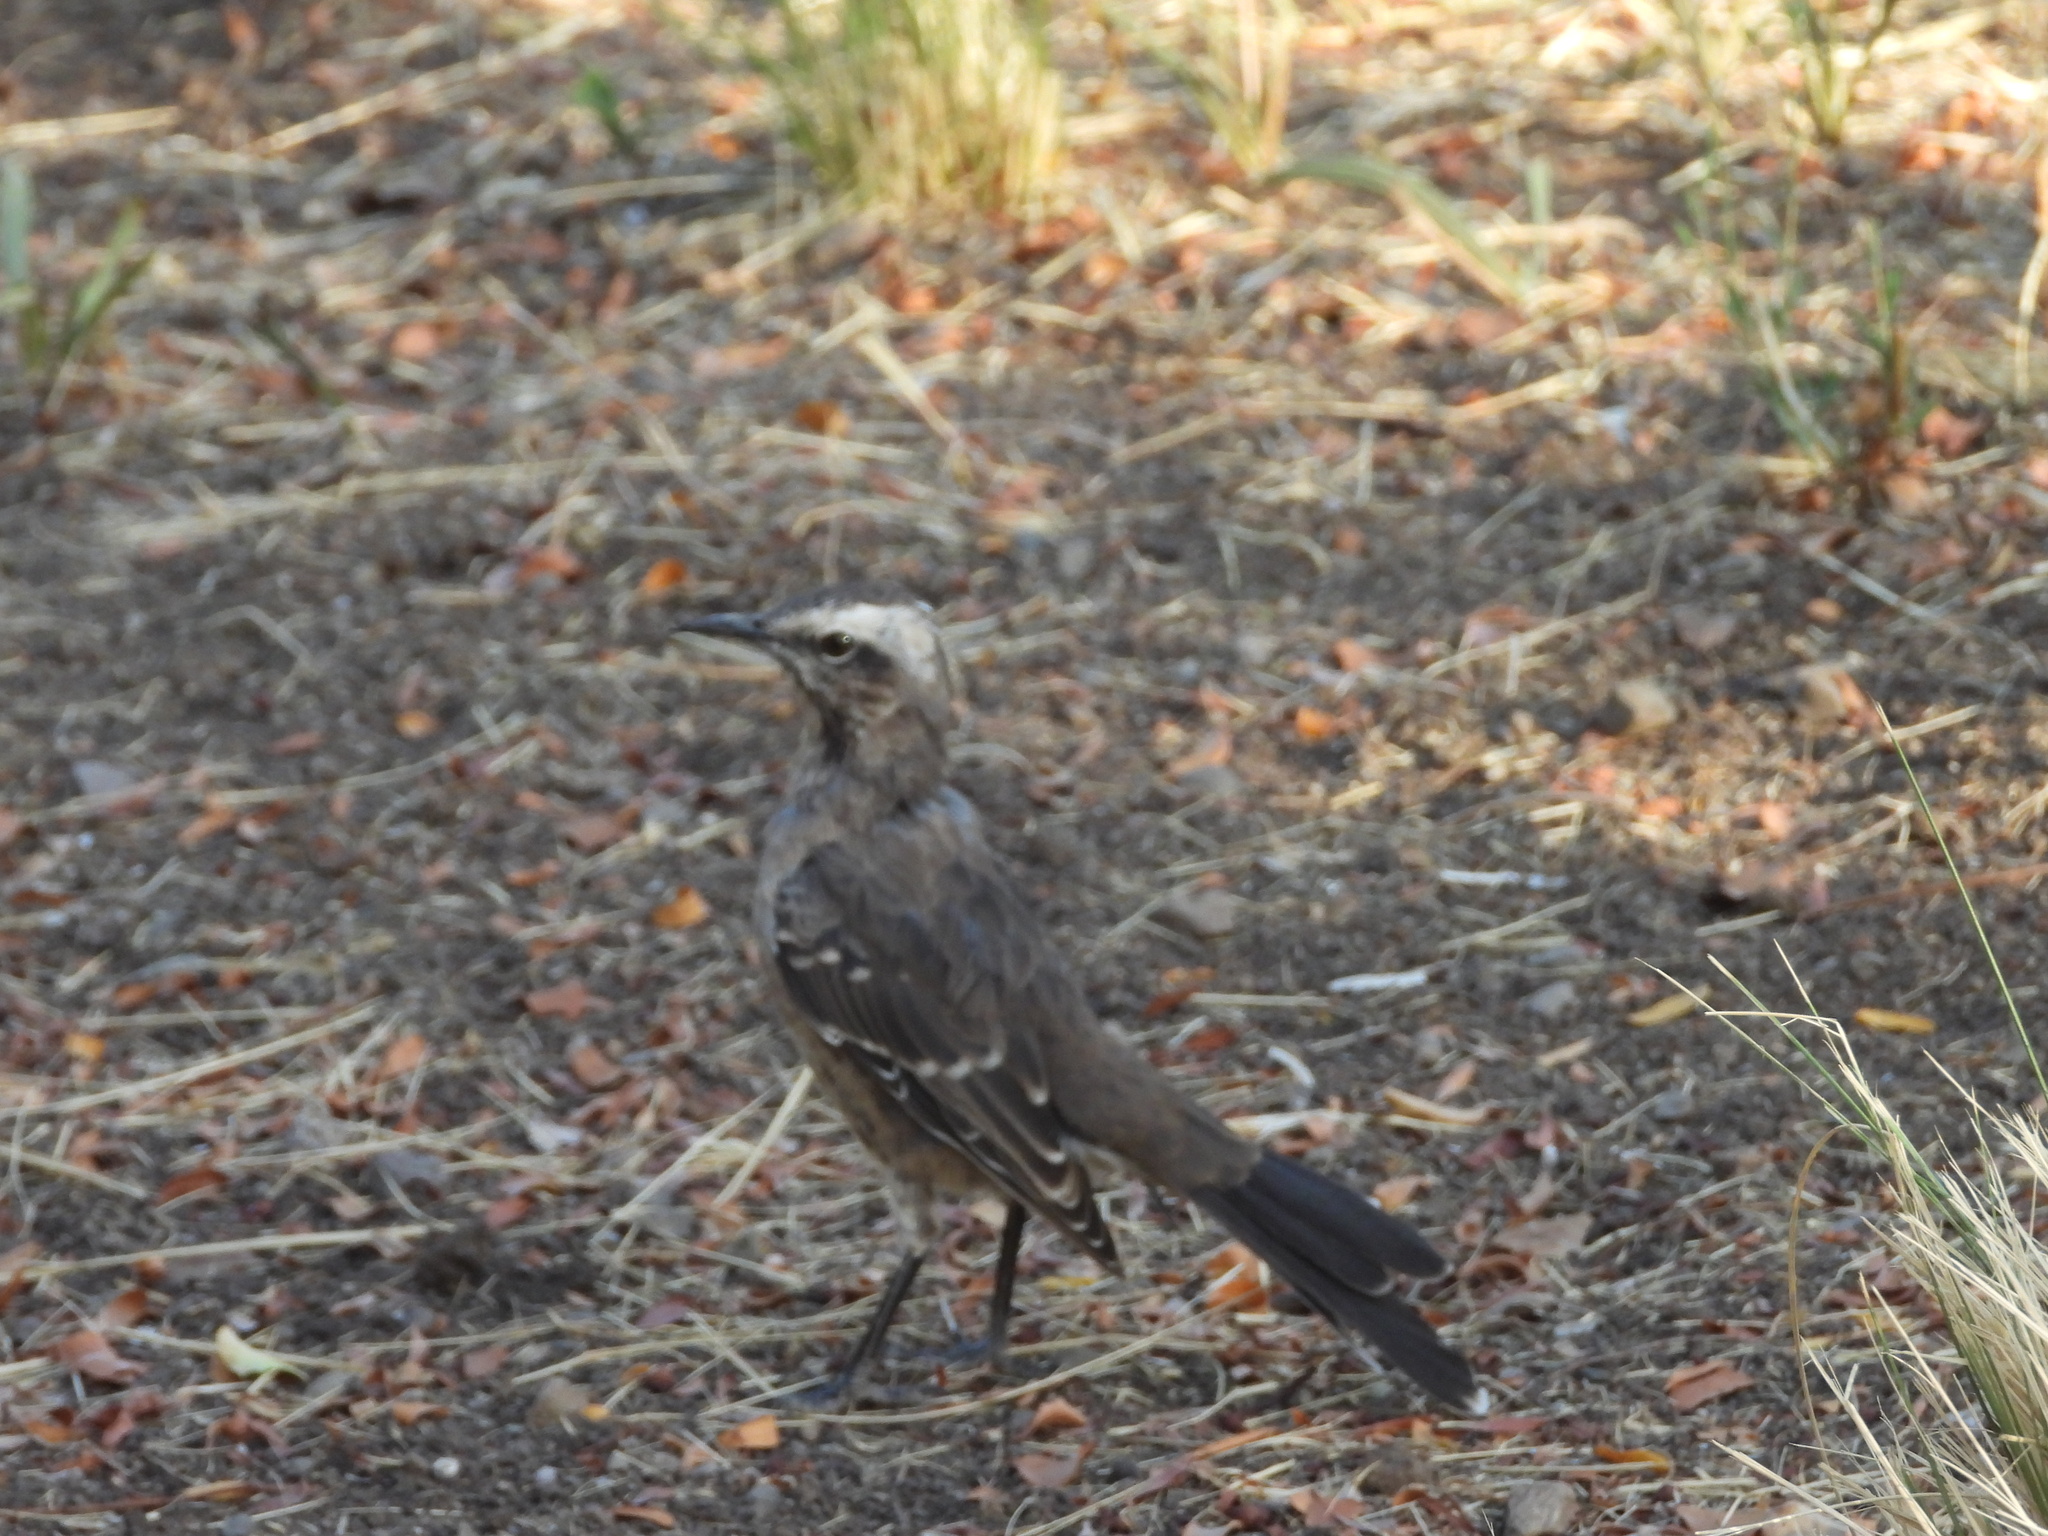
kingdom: Animalia
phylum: Chordata
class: Aves
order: Passeriformes
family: Mimidae
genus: Mimus
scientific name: Mimus thenca
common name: Chilean mockingbird
